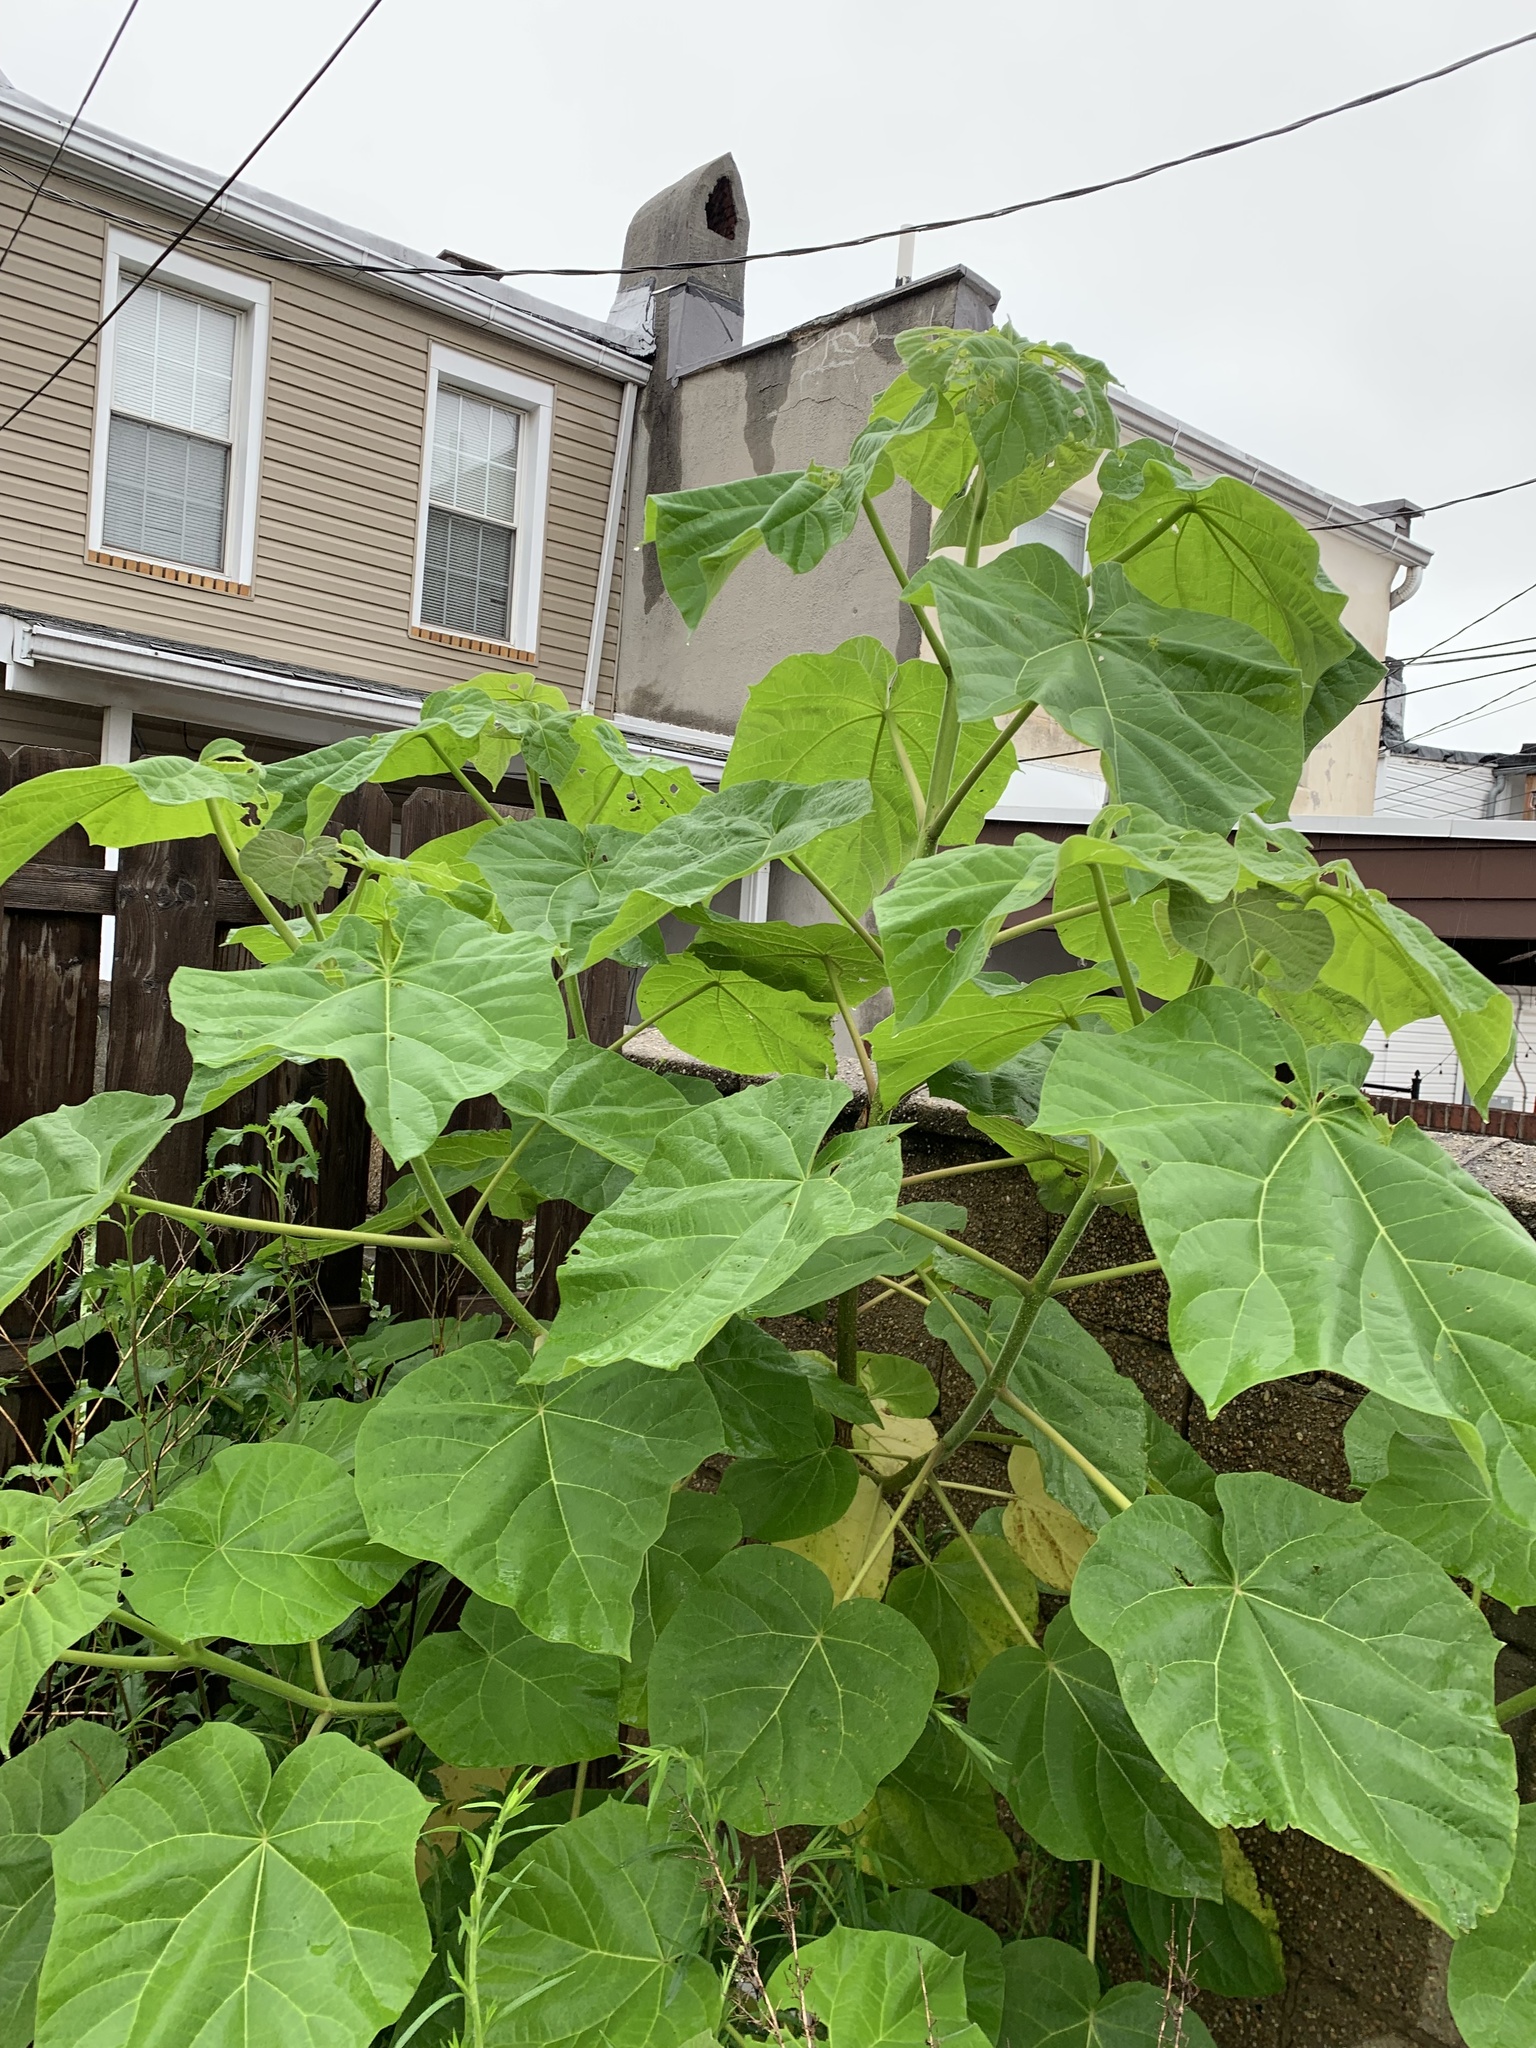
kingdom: Plantae
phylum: Tracheophyta
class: Magnoliopsida
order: Lamiales
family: Paulowniaceae
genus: Paulownia
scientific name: Paulownia tomentosa
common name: Foxglove-tree
